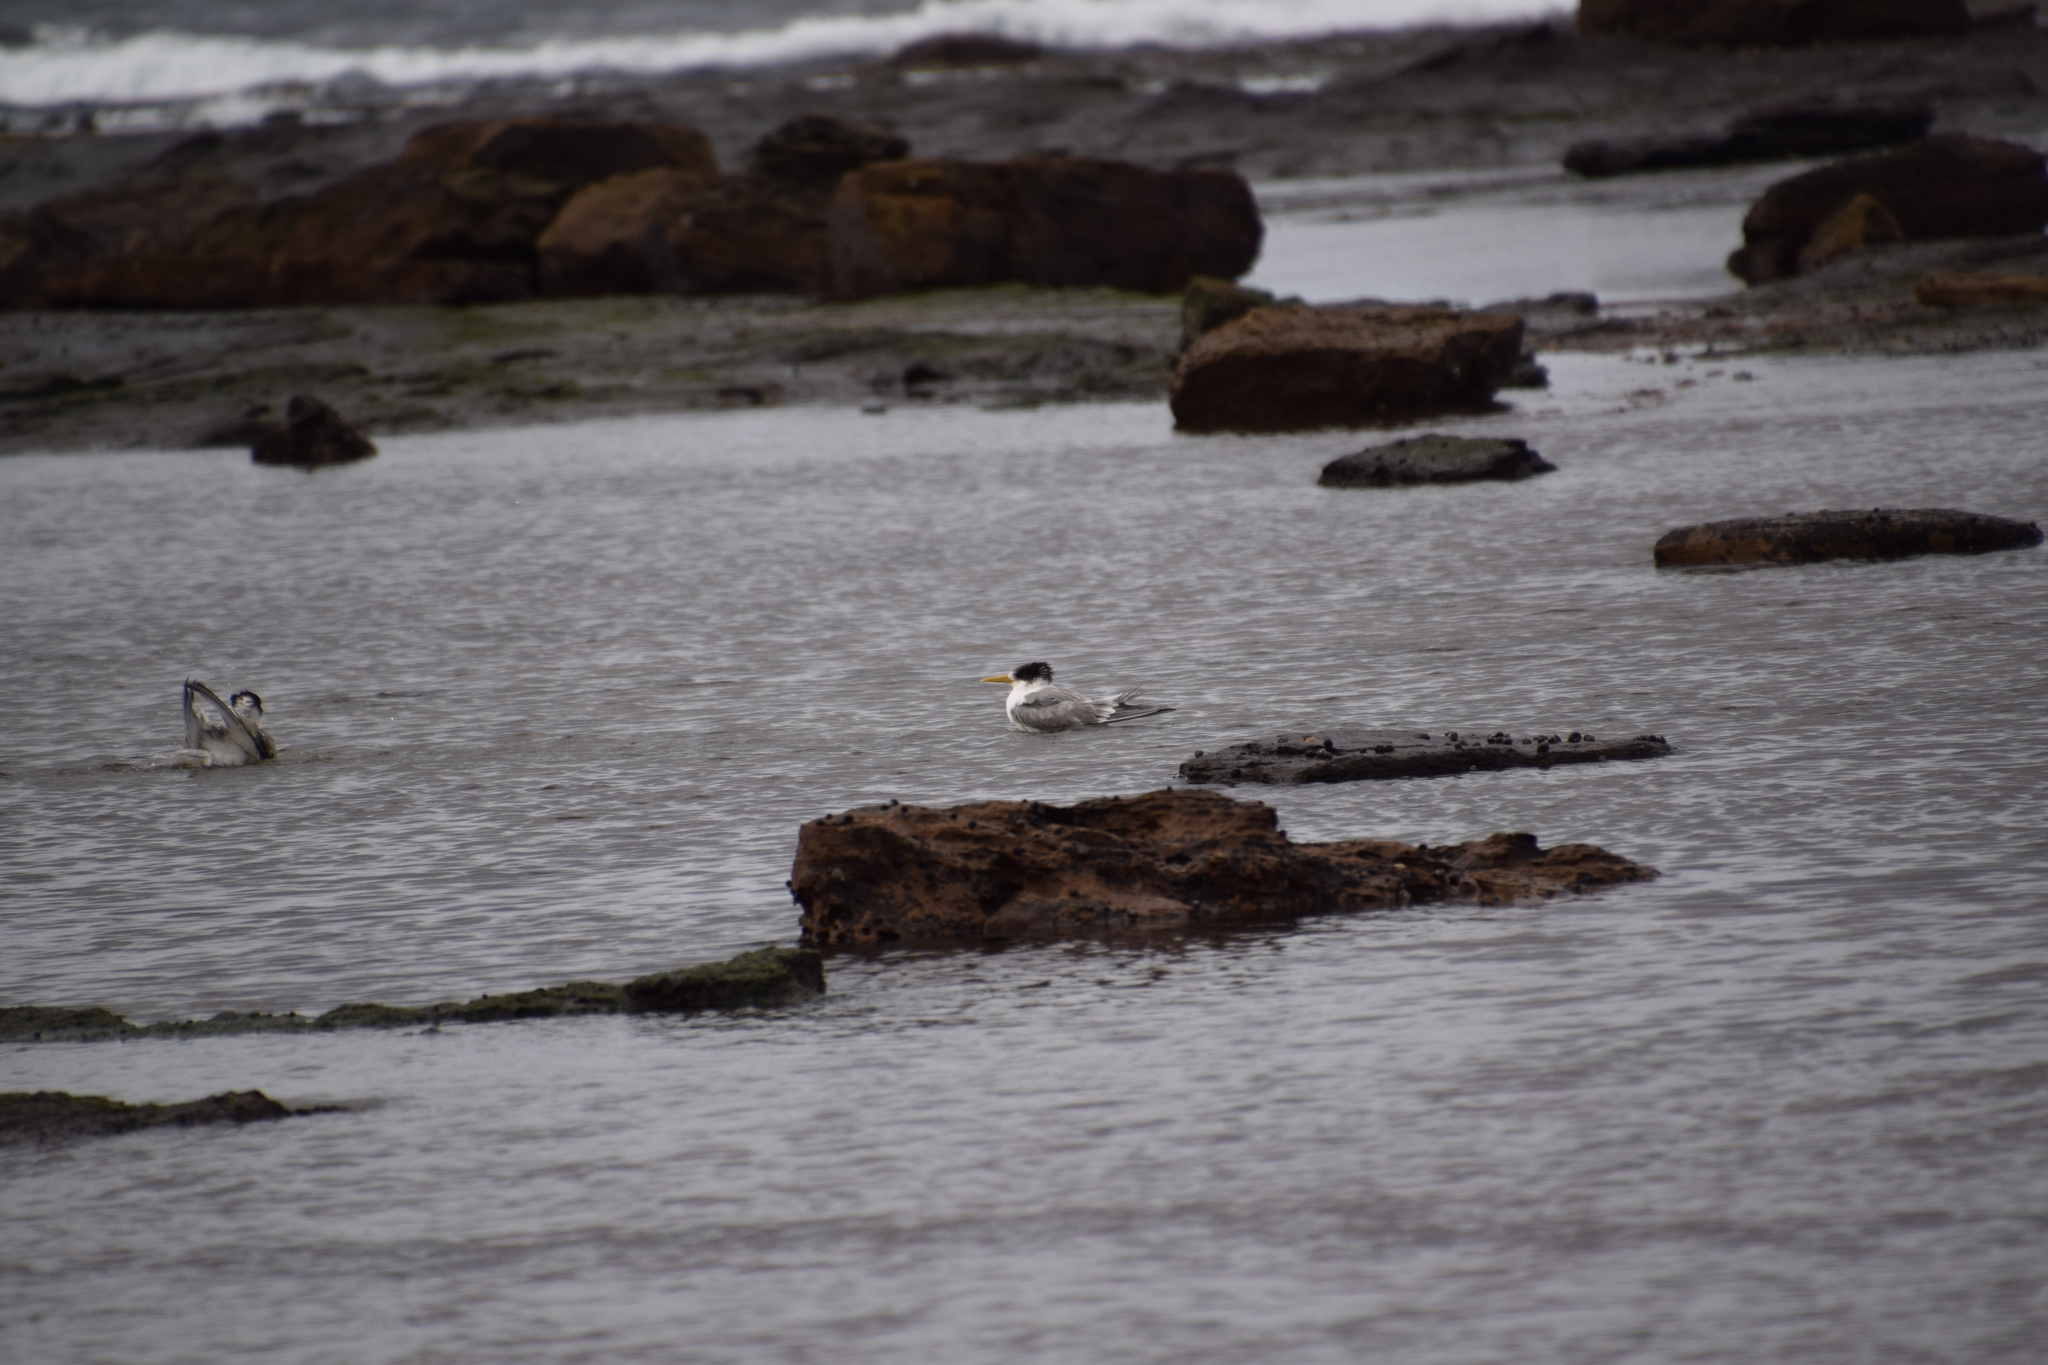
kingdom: Animalia
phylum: Chordata
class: Aves
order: Charadriiformes
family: Laridae
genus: Thalasseus
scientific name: Thalasseus bergii
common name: Greater crested tern
